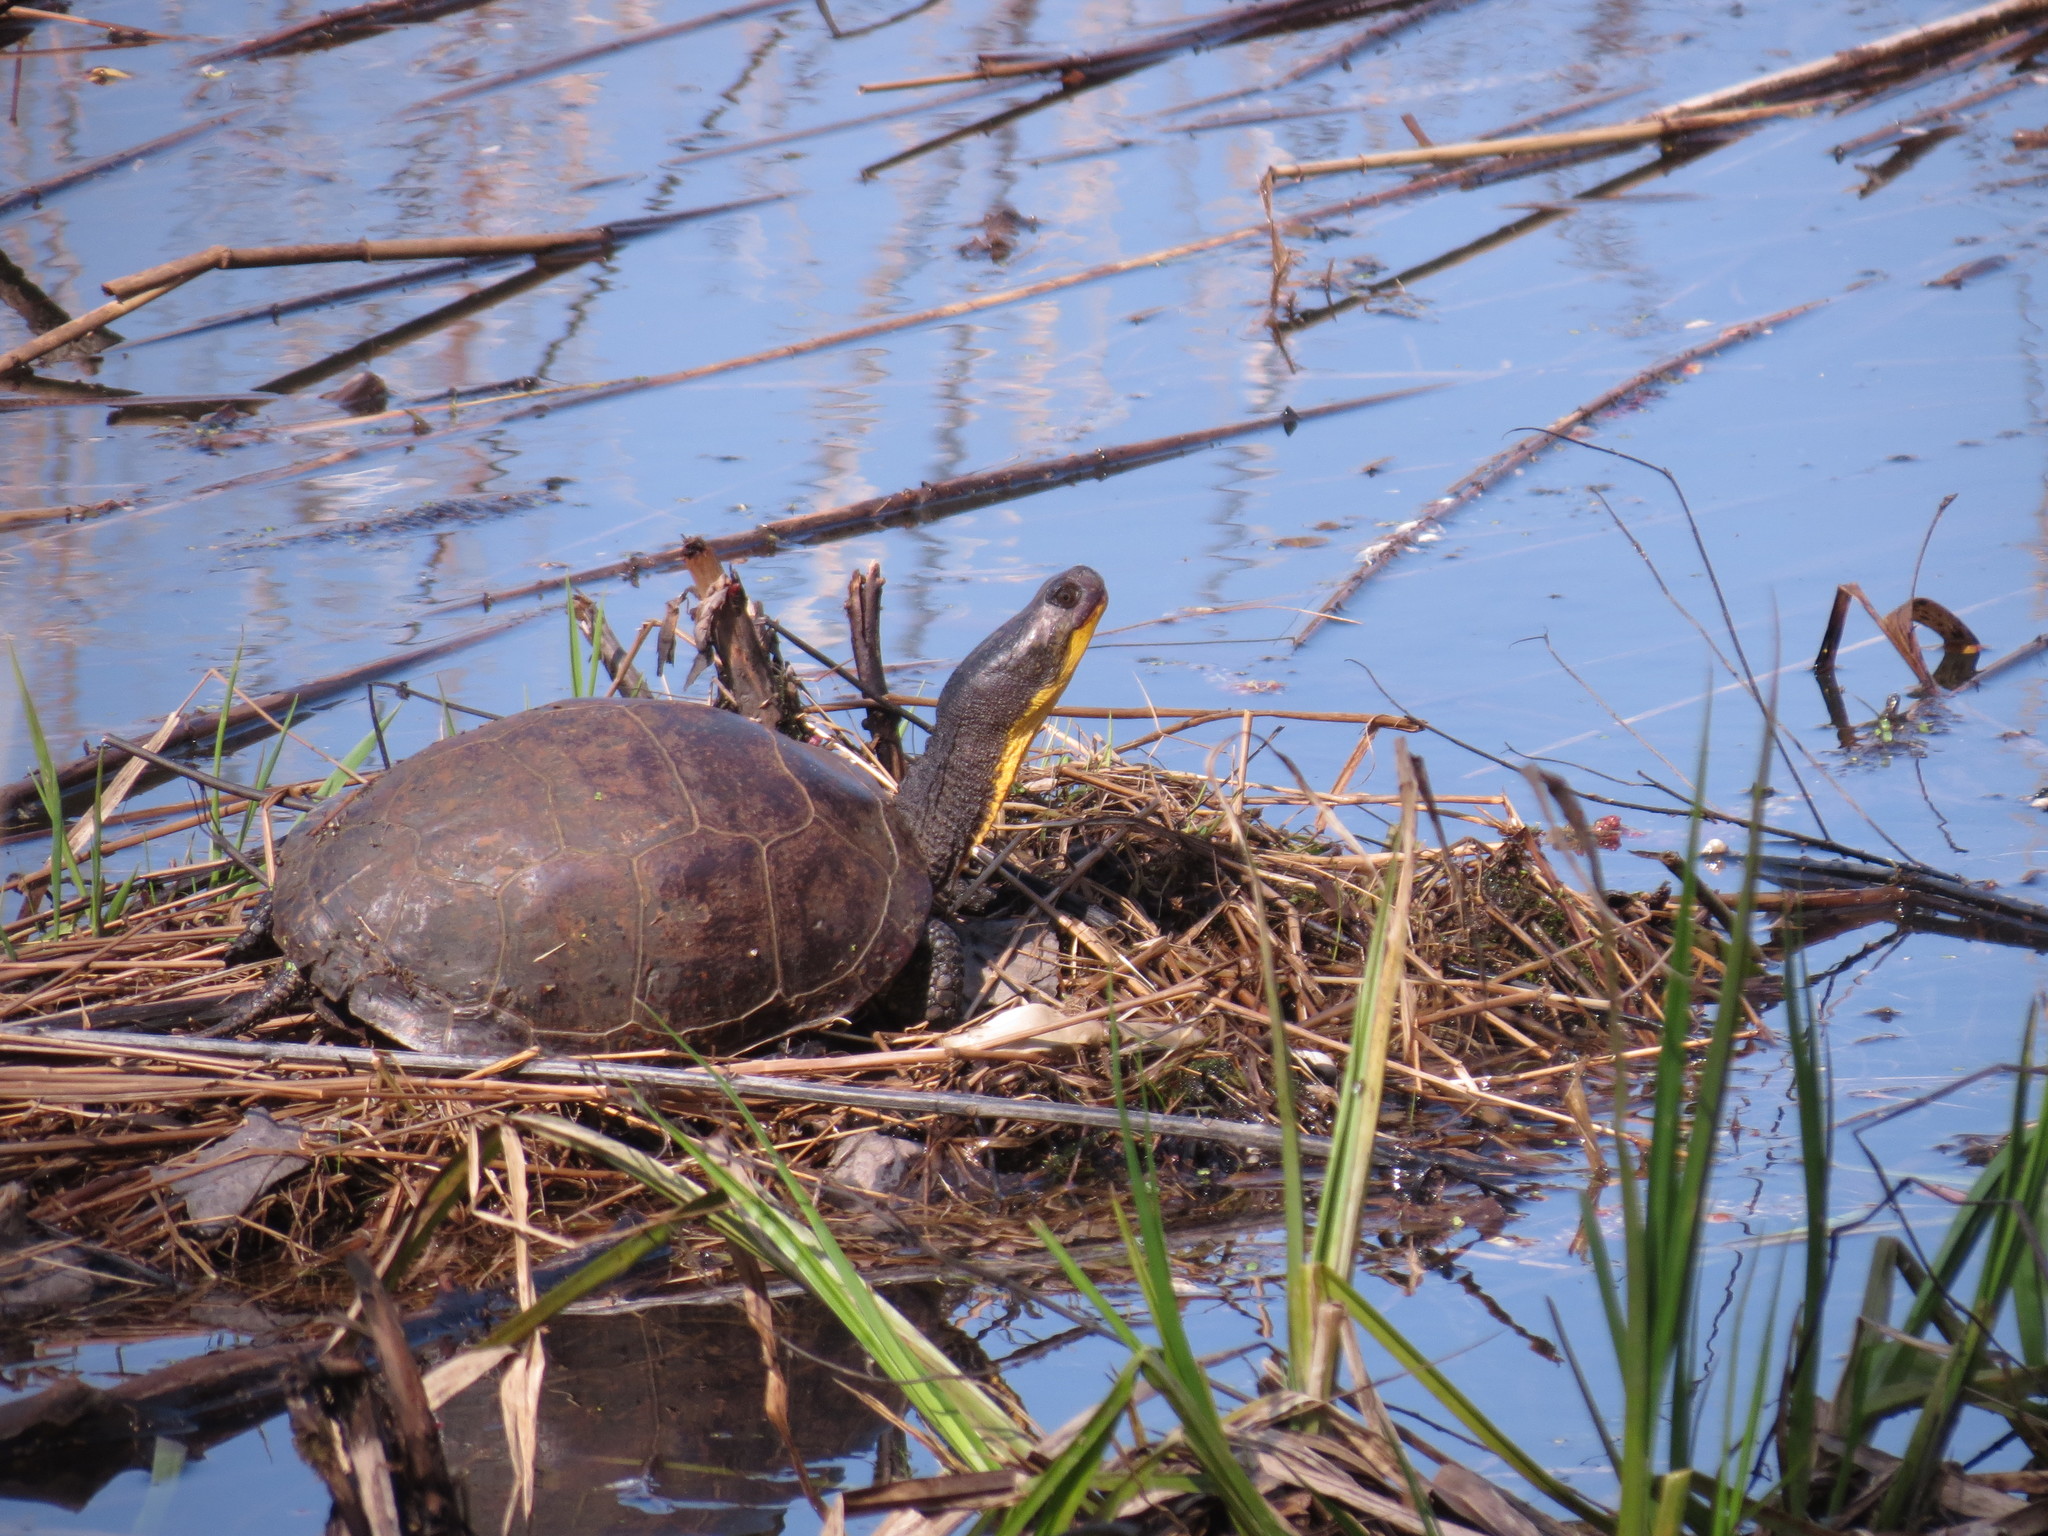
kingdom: Animalia
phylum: Chordata
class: Testudines
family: Emydidae
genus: Emys
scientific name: Emys blandingii
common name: Blanding's turtle
